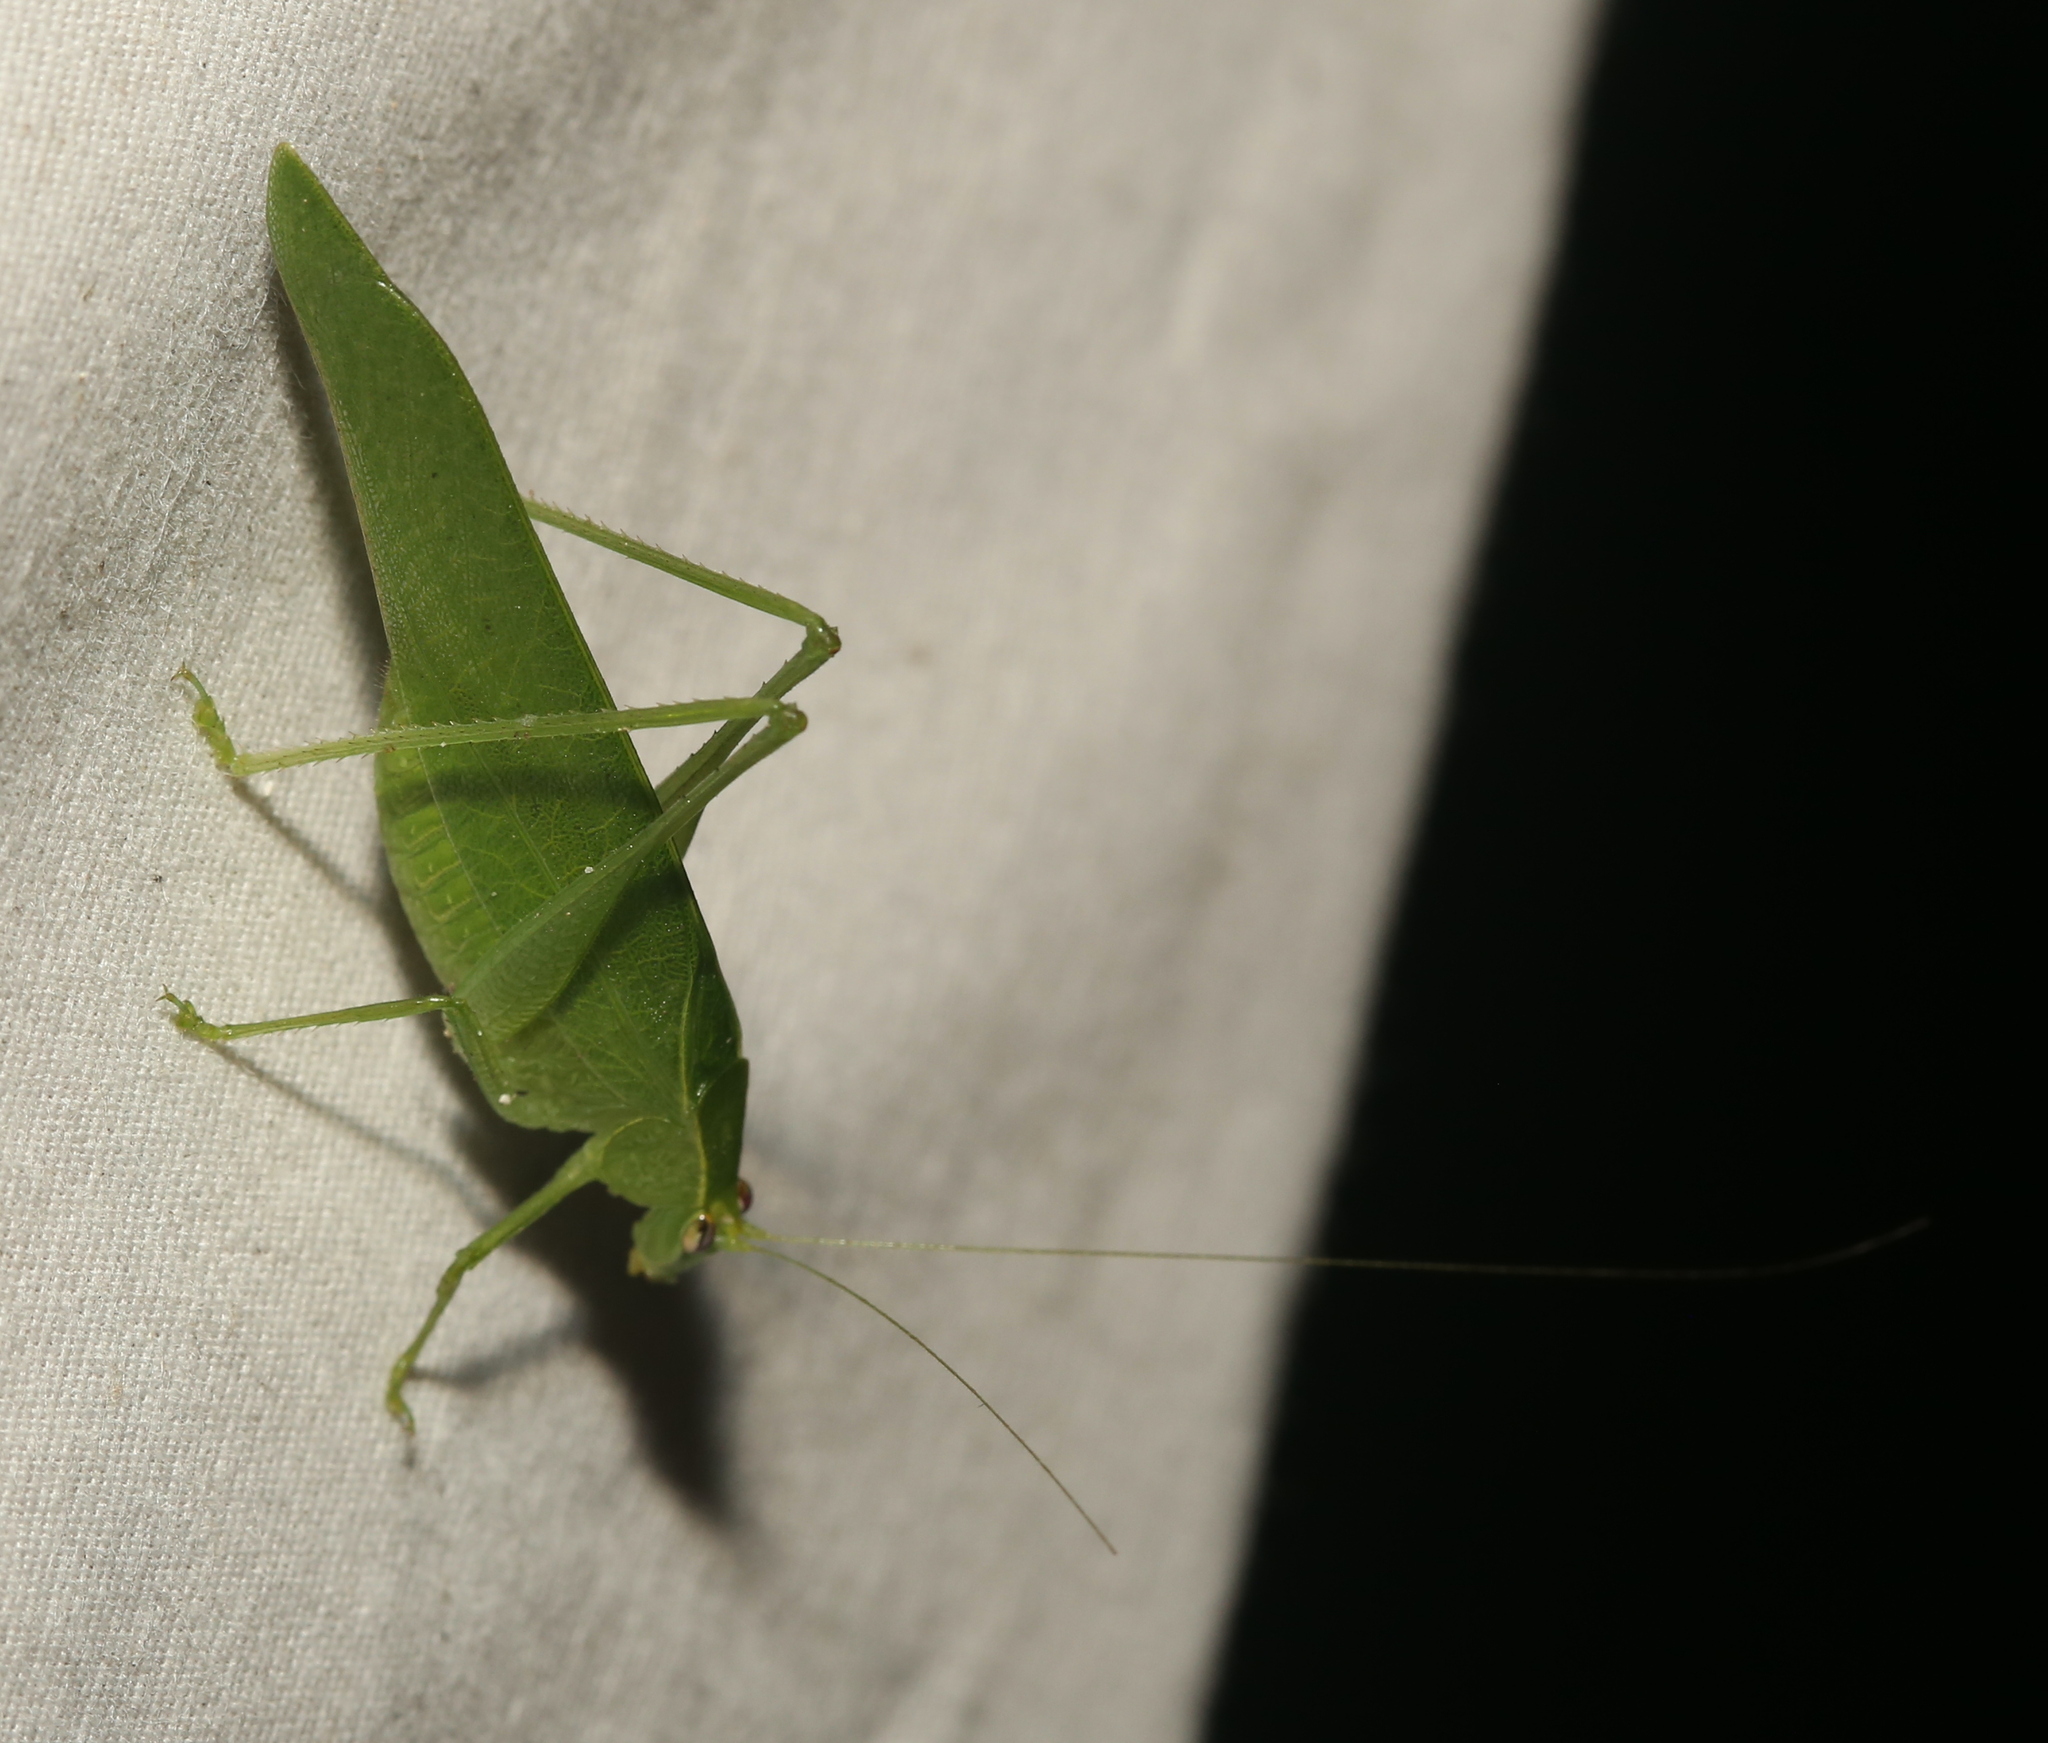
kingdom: Animalia
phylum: Arthropoda
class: Insecta
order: Orthoptera
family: Tettigoniidae
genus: Montezumina
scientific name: Montezumina modesta
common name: Modest katydid
